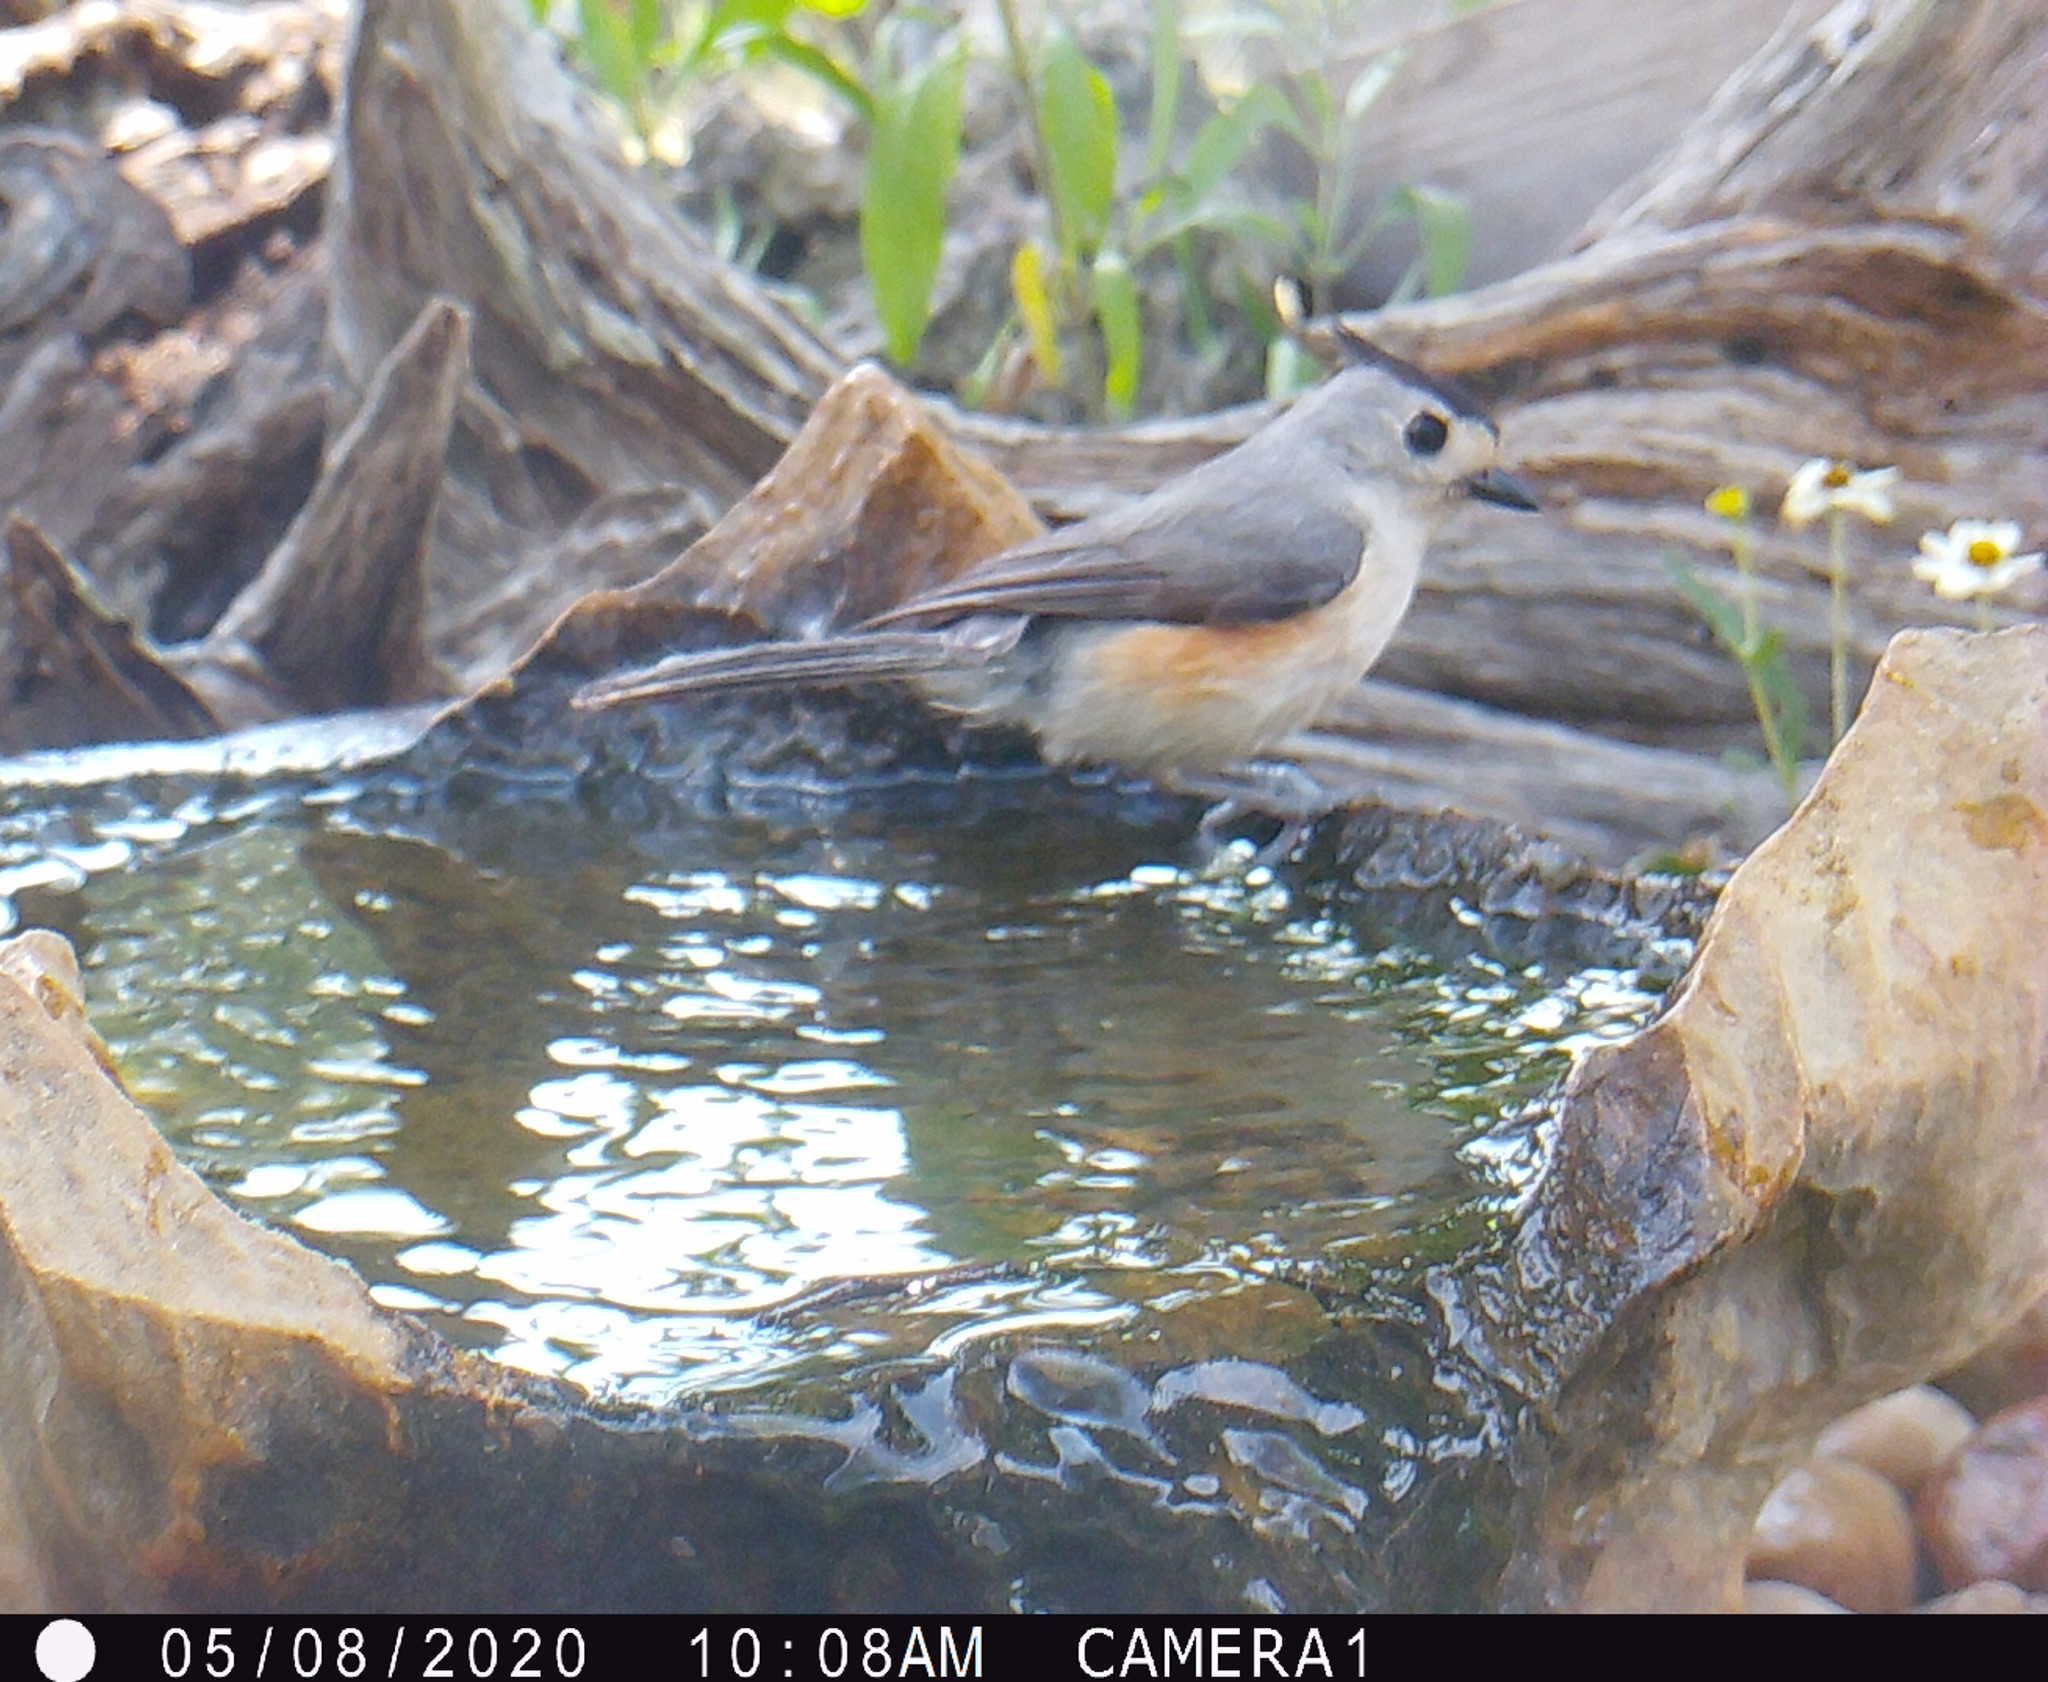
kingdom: Animalia
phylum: Chordata
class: Aves
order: Passeriformes
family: Paridae
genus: Baeolophus
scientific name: Baeolophus atricristatus
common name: Black-crested titmouse
